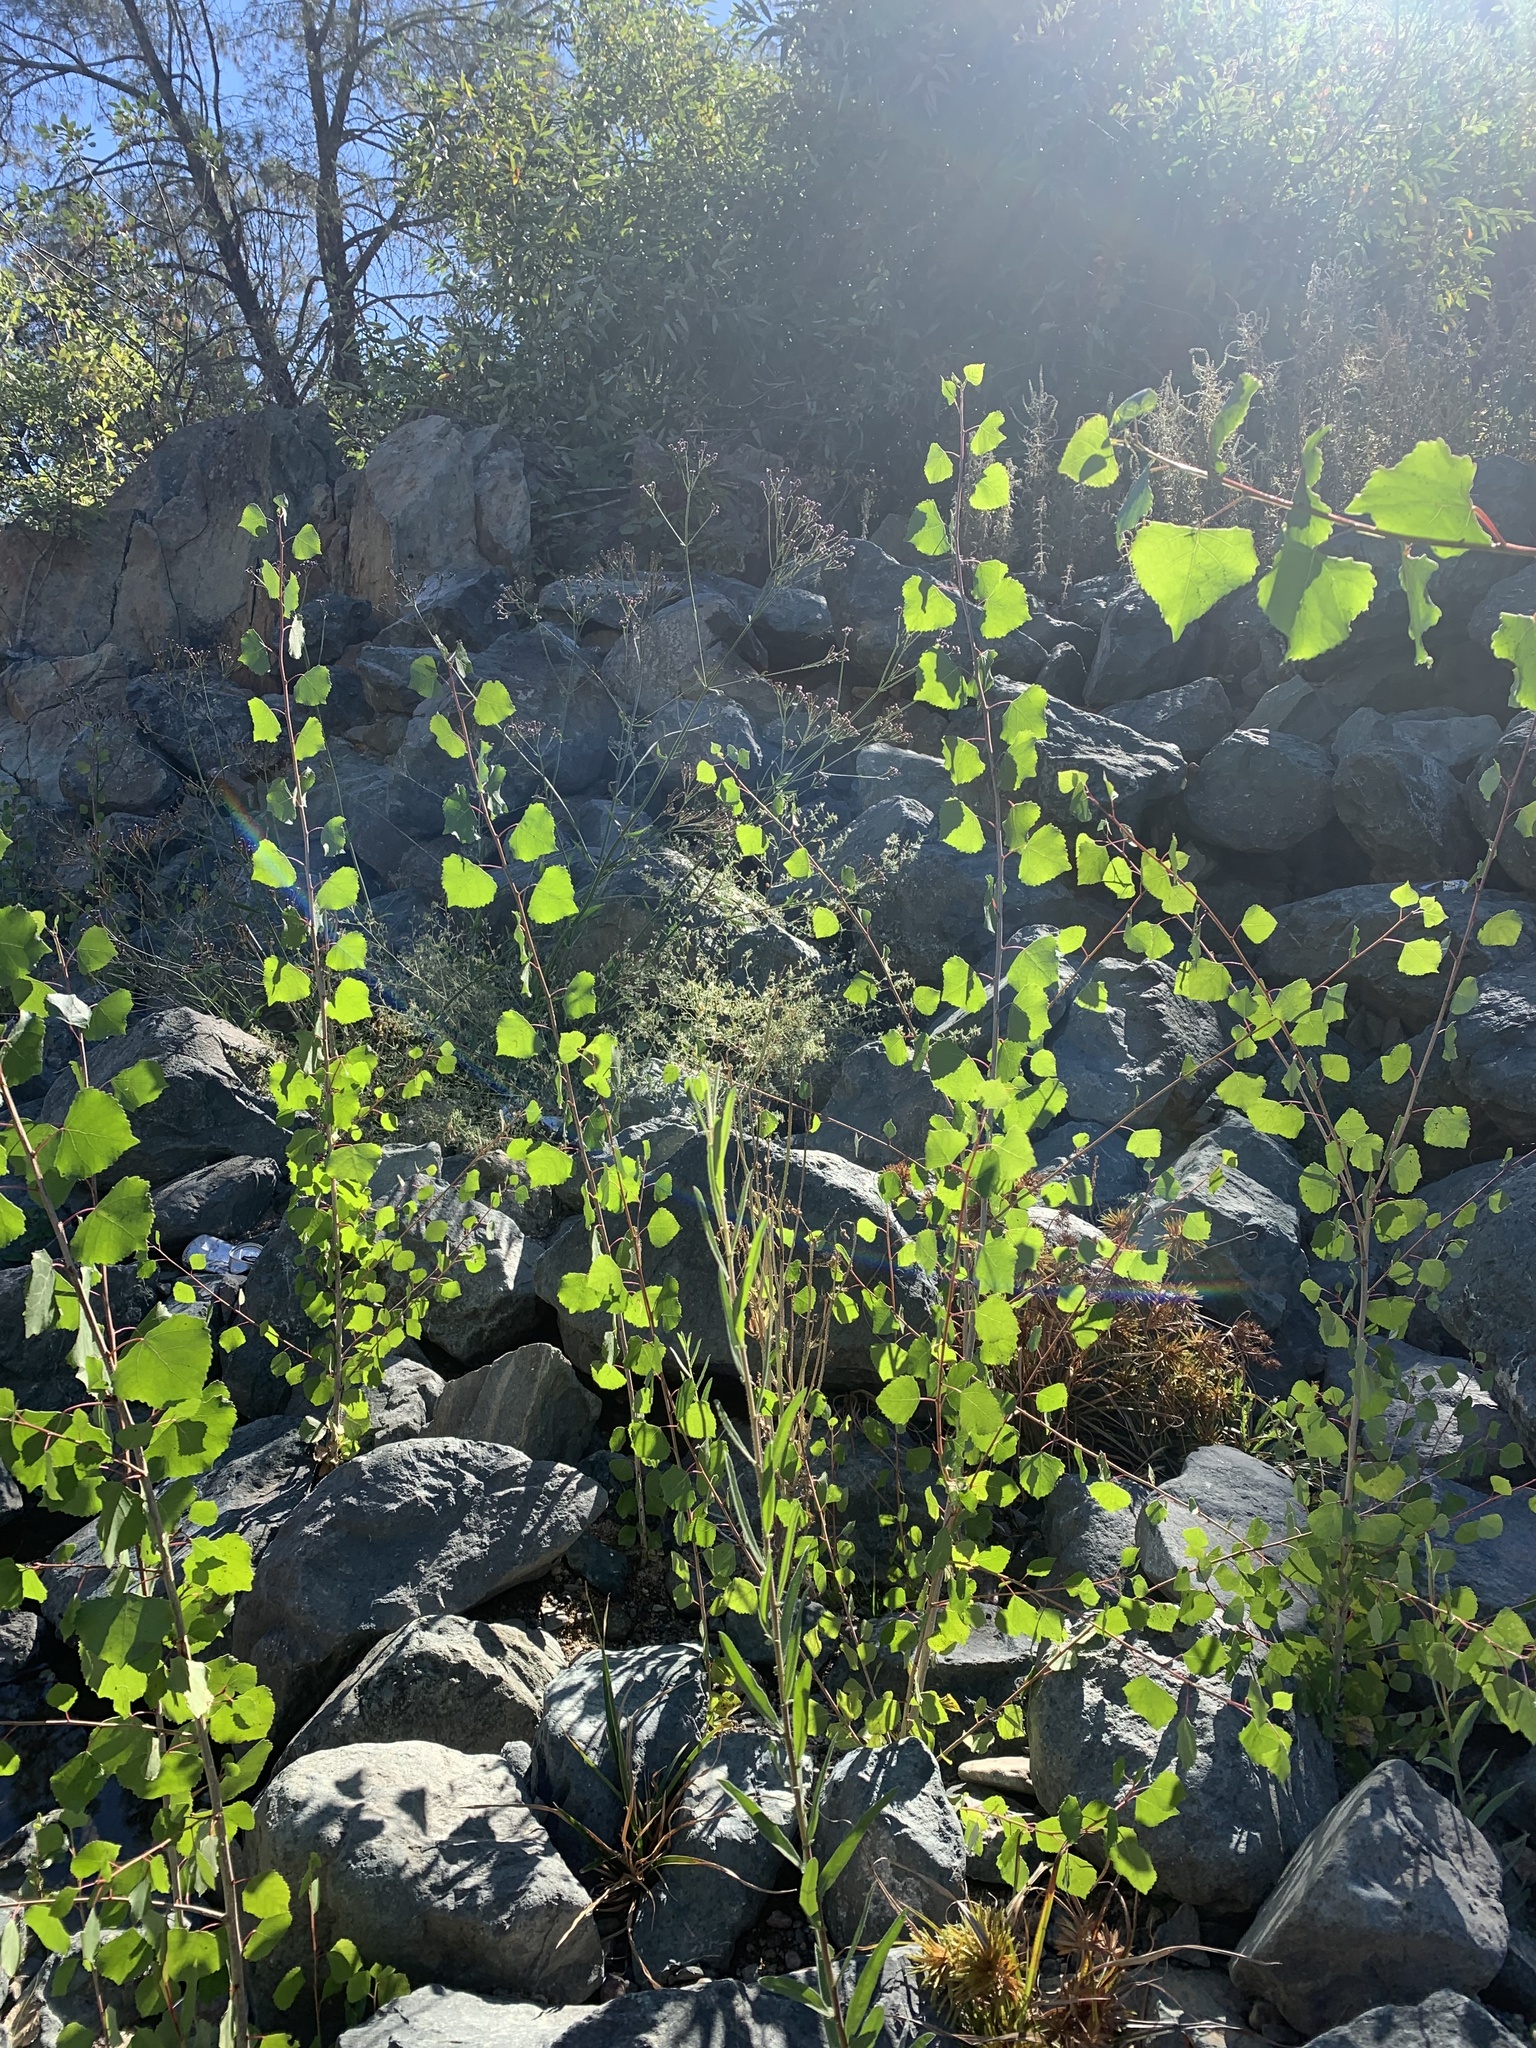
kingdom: Plantae
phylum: Tracheophyta
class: Magnoliopsida
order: Malpighiales
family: Salicaceae
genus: Populus
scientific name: Populus fremontii
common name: Fremont's cottonwood
